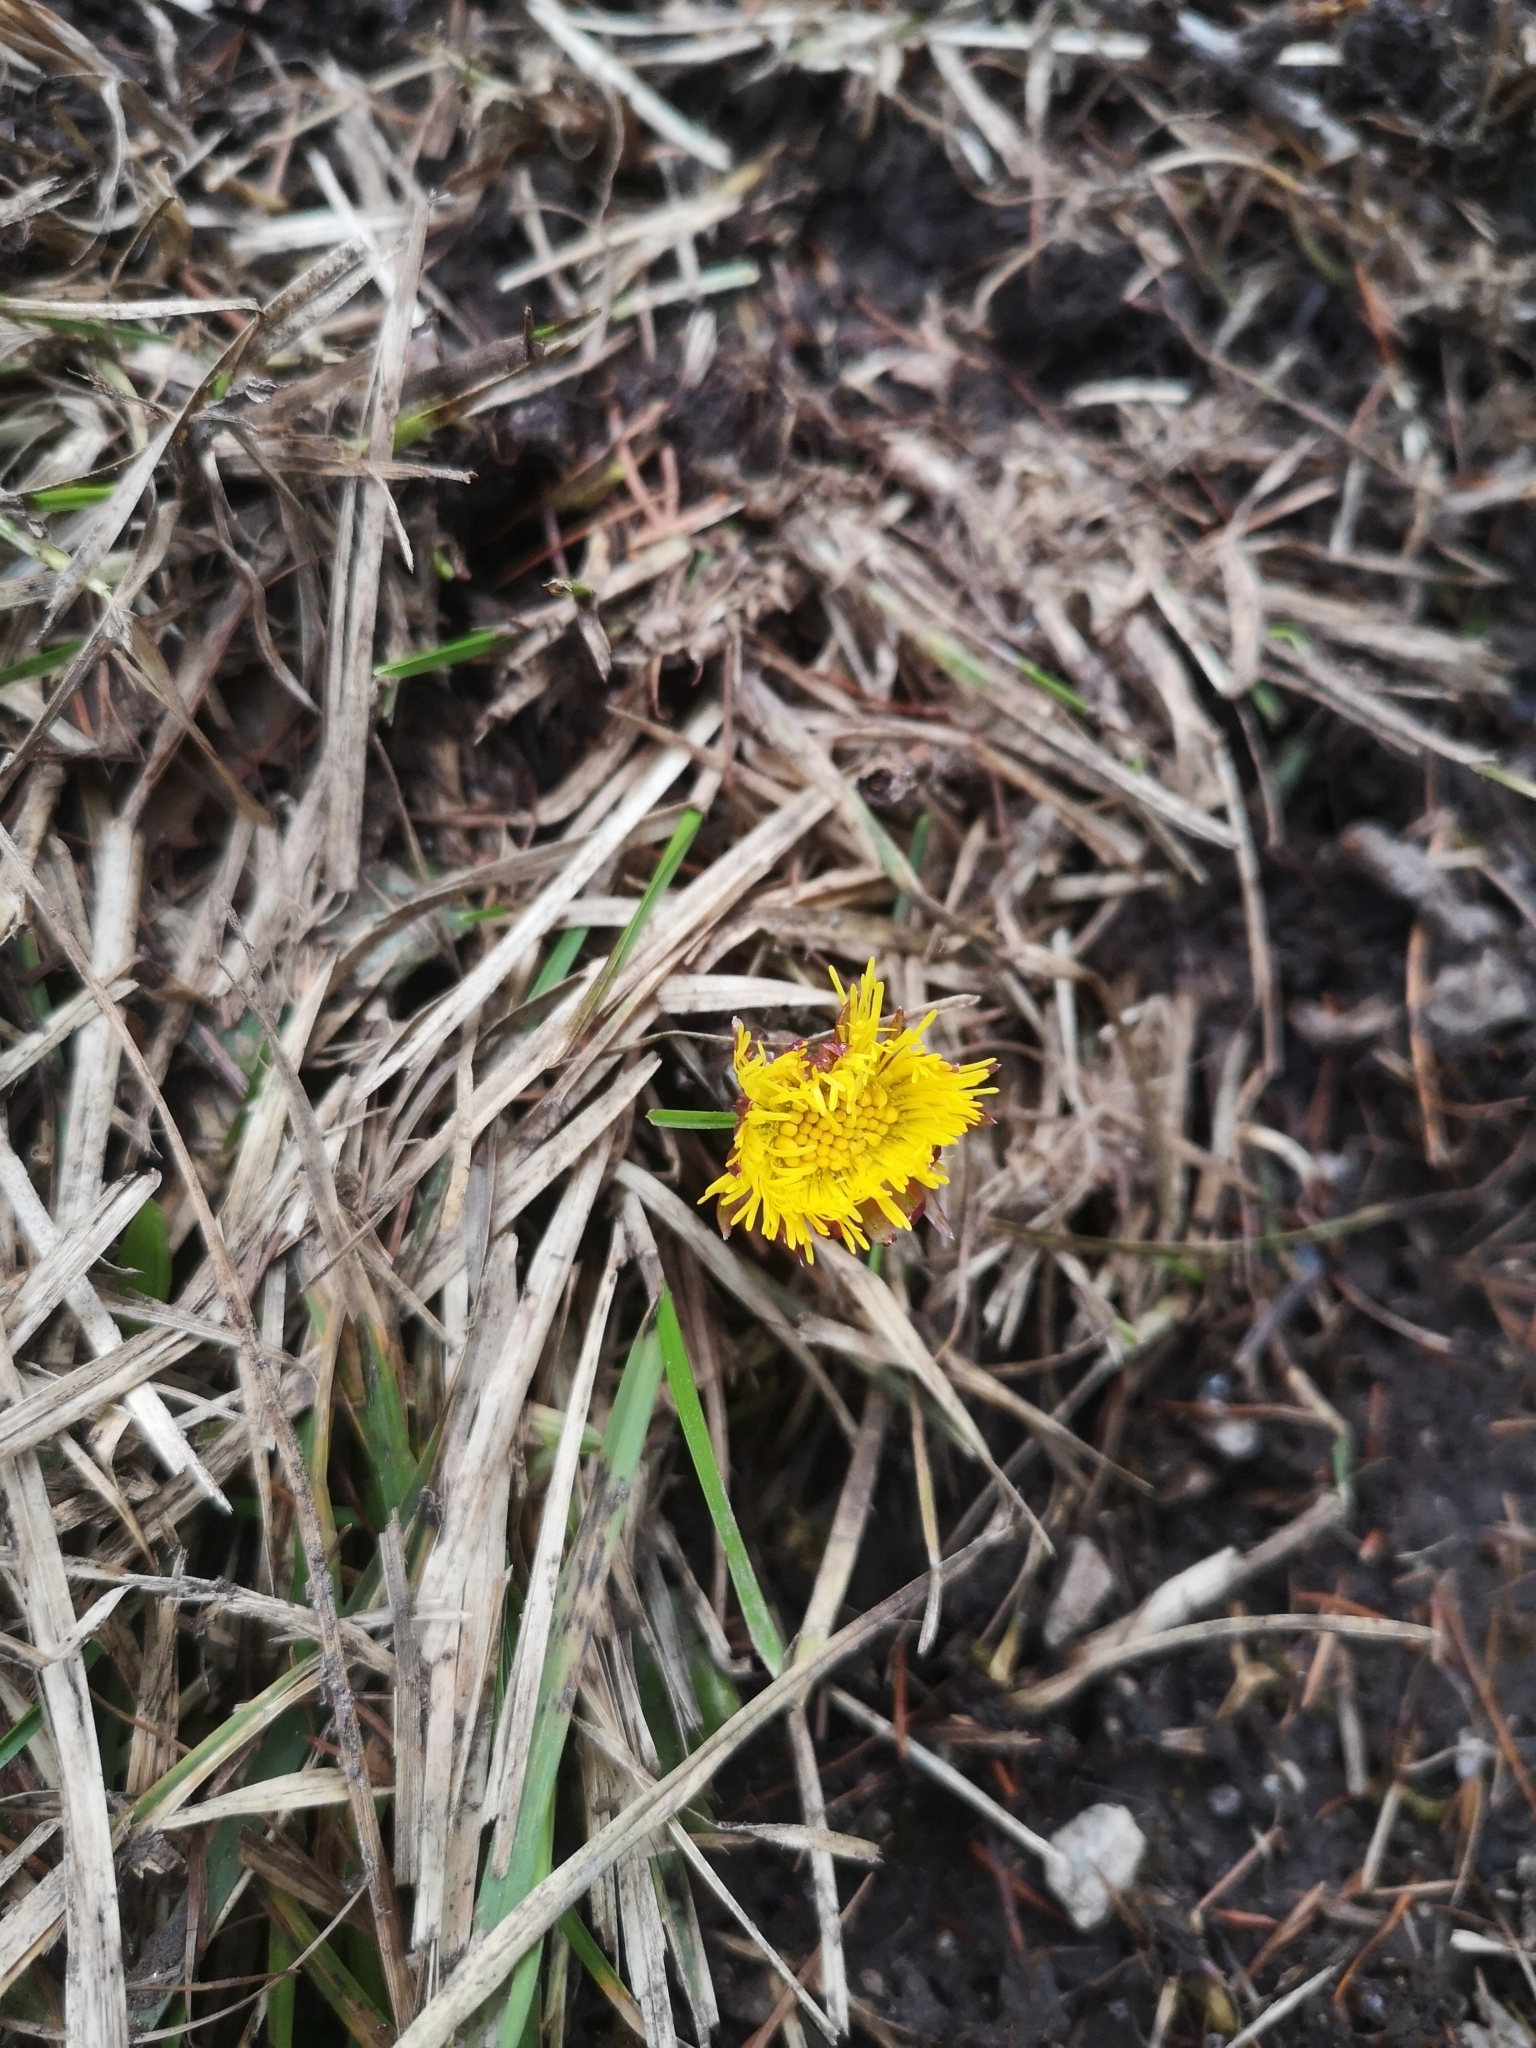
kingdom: Plantae
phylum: Tracheophyta
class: Magnoliopsida
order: Asterales
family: Asteraceae
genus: Tussilago
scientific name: Tussilago farfara
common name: Coltsfoot
